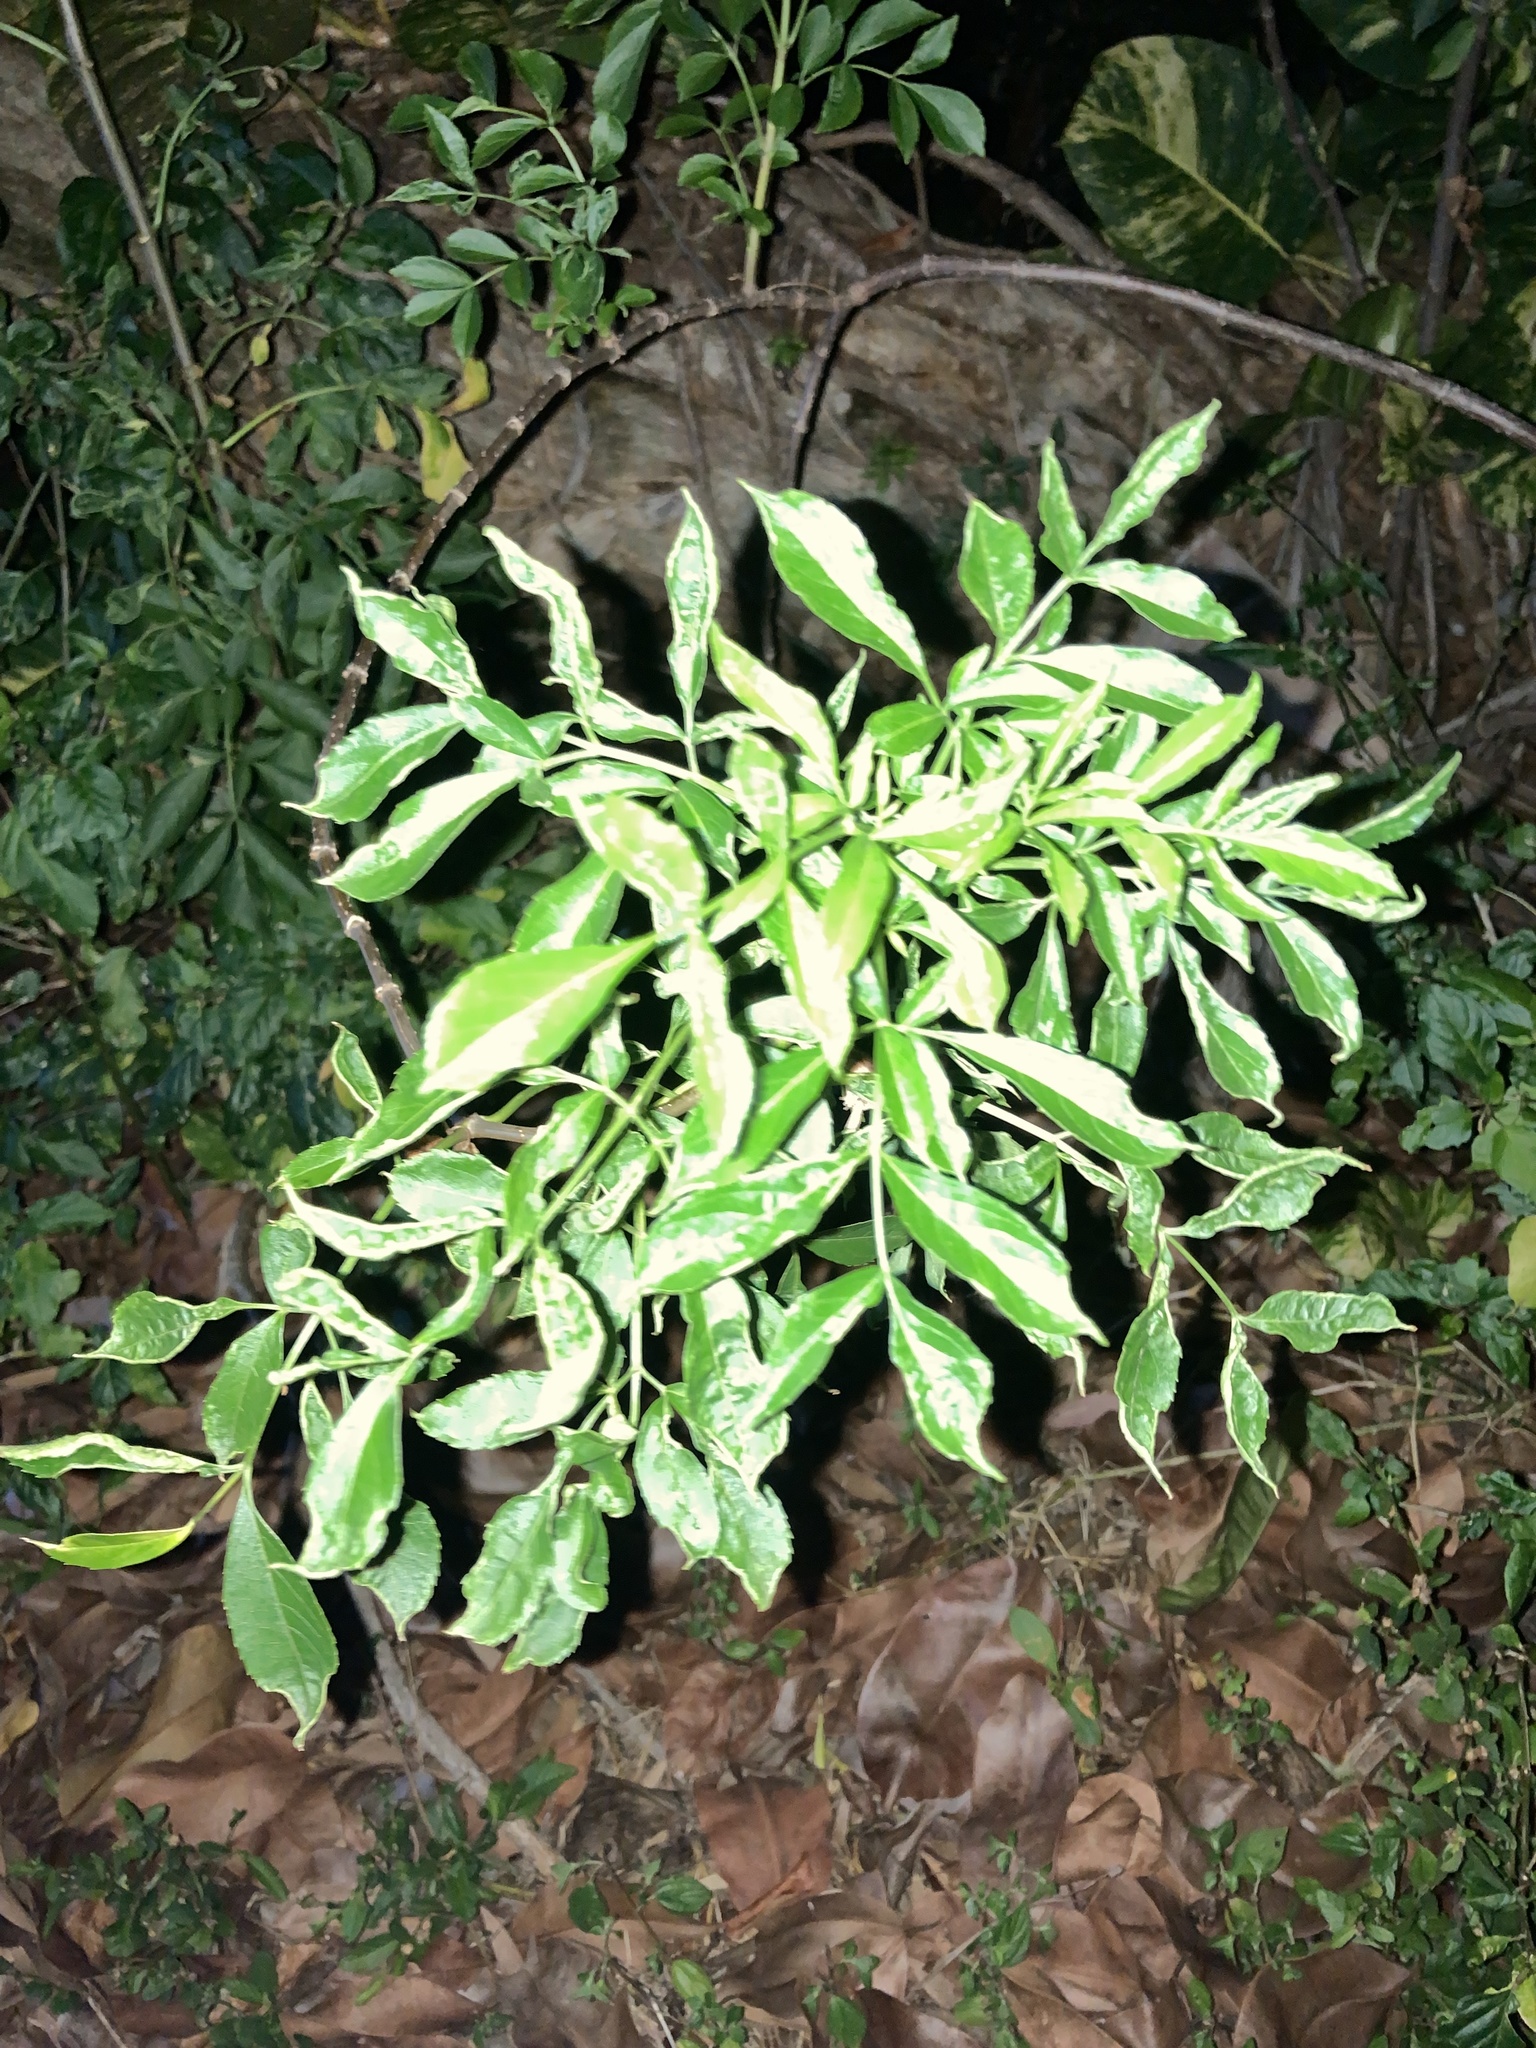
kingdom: Plantae
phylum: Tracheophyta
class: Magnoliopsida
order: Dipsacales
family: Viburnaceae
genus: Sambucus
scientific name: Sambucus canadensis
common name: American elder
